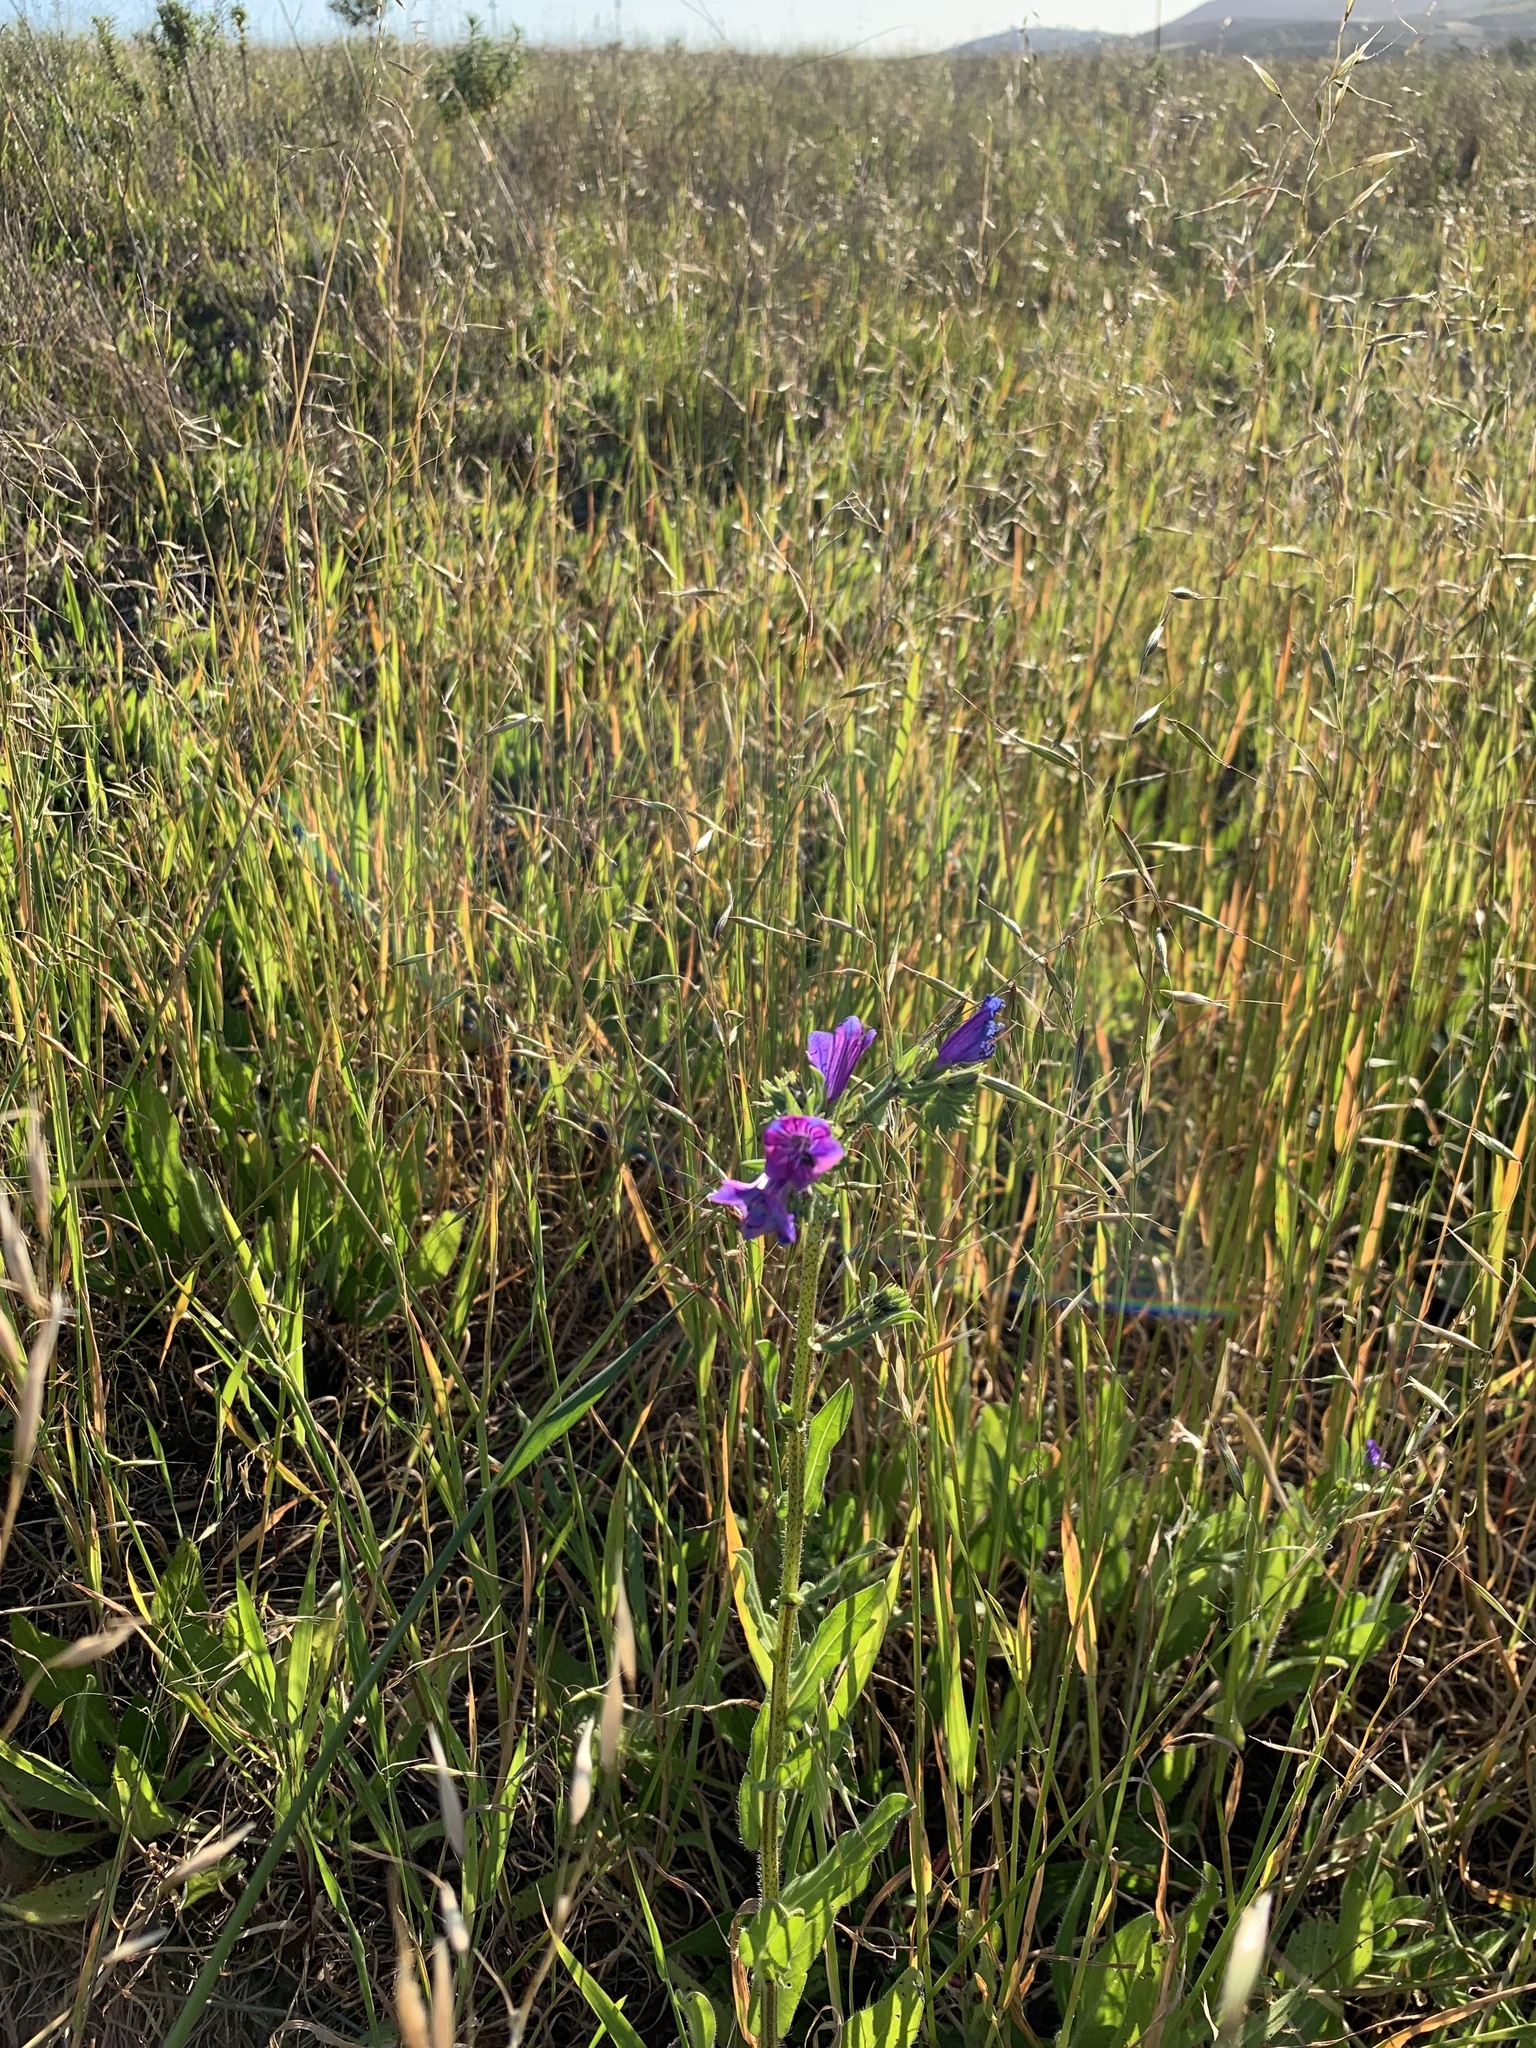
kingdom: Plantae
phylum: Tracheophyta
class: Magnoliopsida
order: Boraginales
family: Boraginaceae
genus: Echium
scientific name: Echium plantagineum
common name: Purple viper's-bugloss
